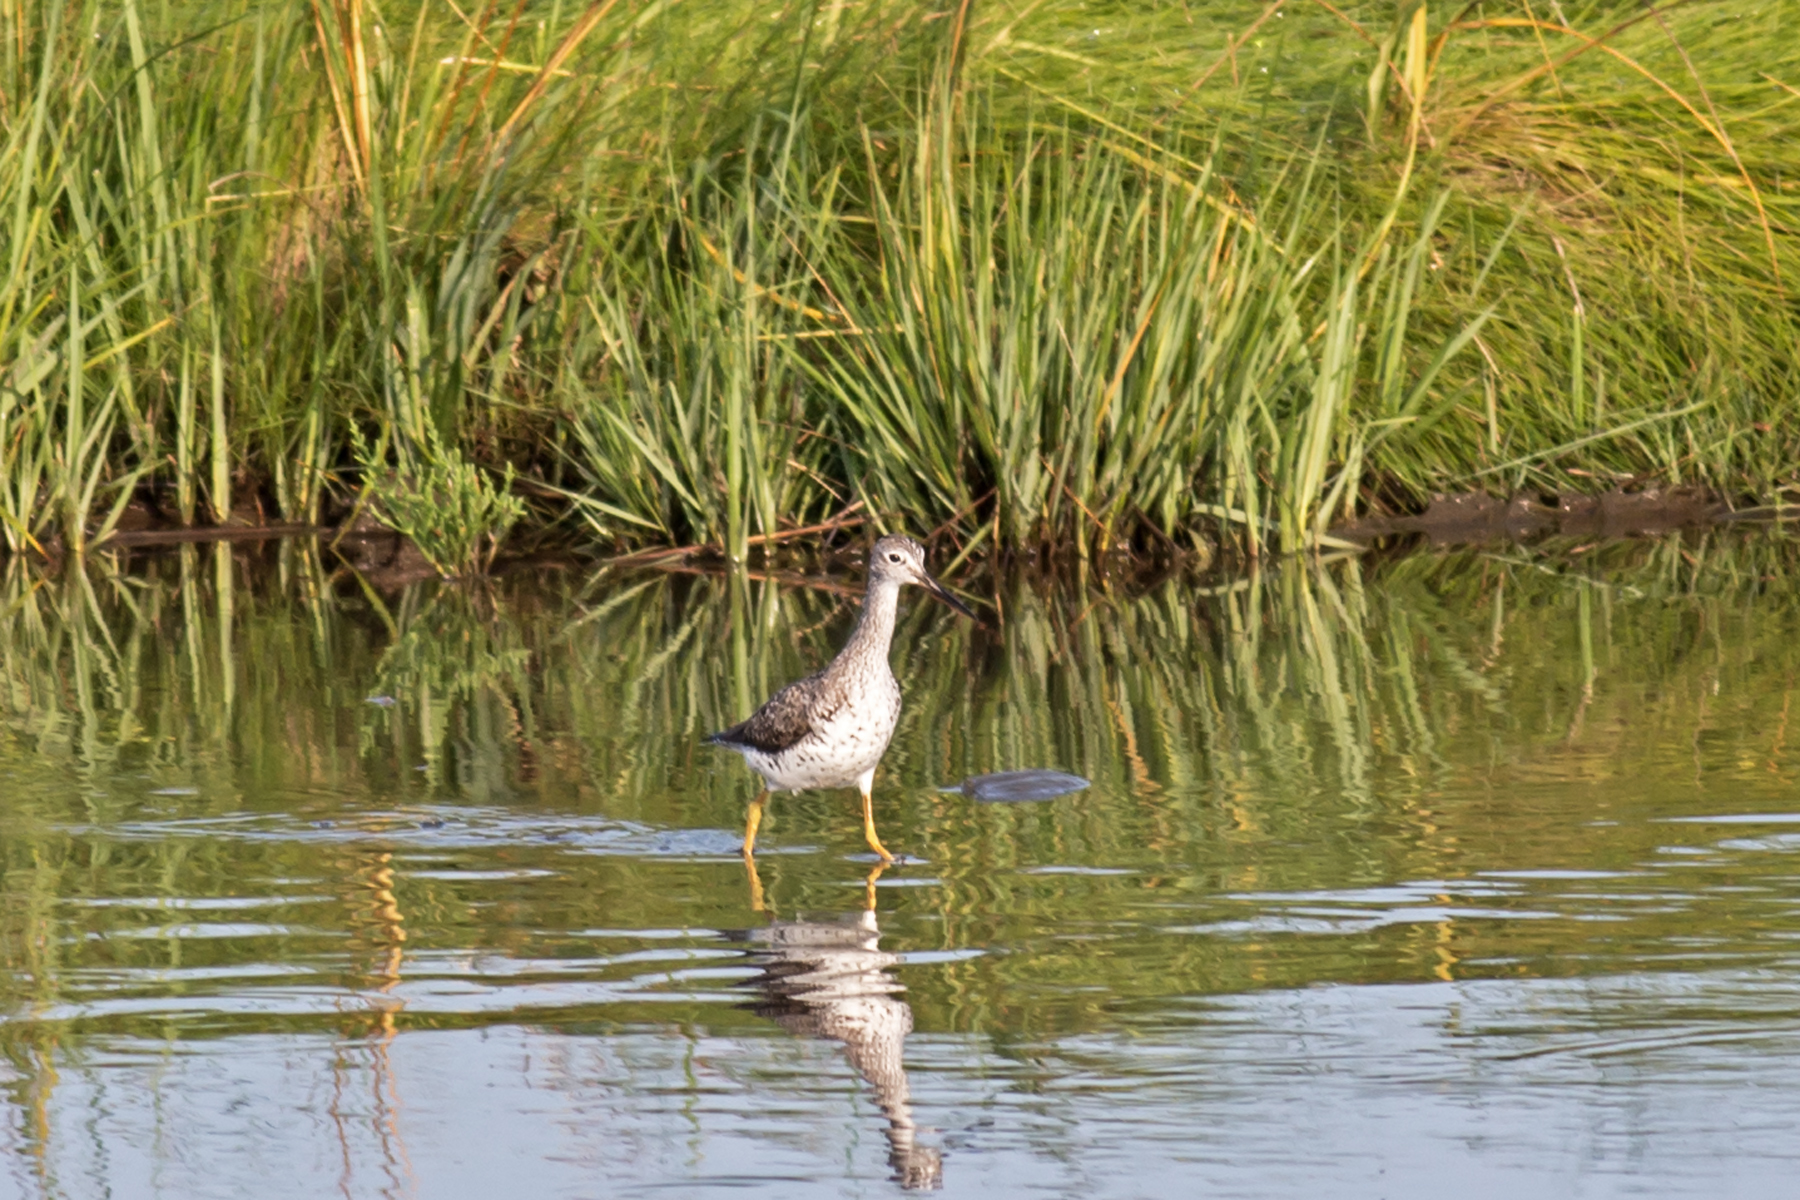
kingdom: Animalia
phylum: Chordata
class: Aves
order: Charadriiformes
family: Scolopacidae
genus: Tringa
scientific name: Tringa melanoleuca
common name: Greater yellowlegs
